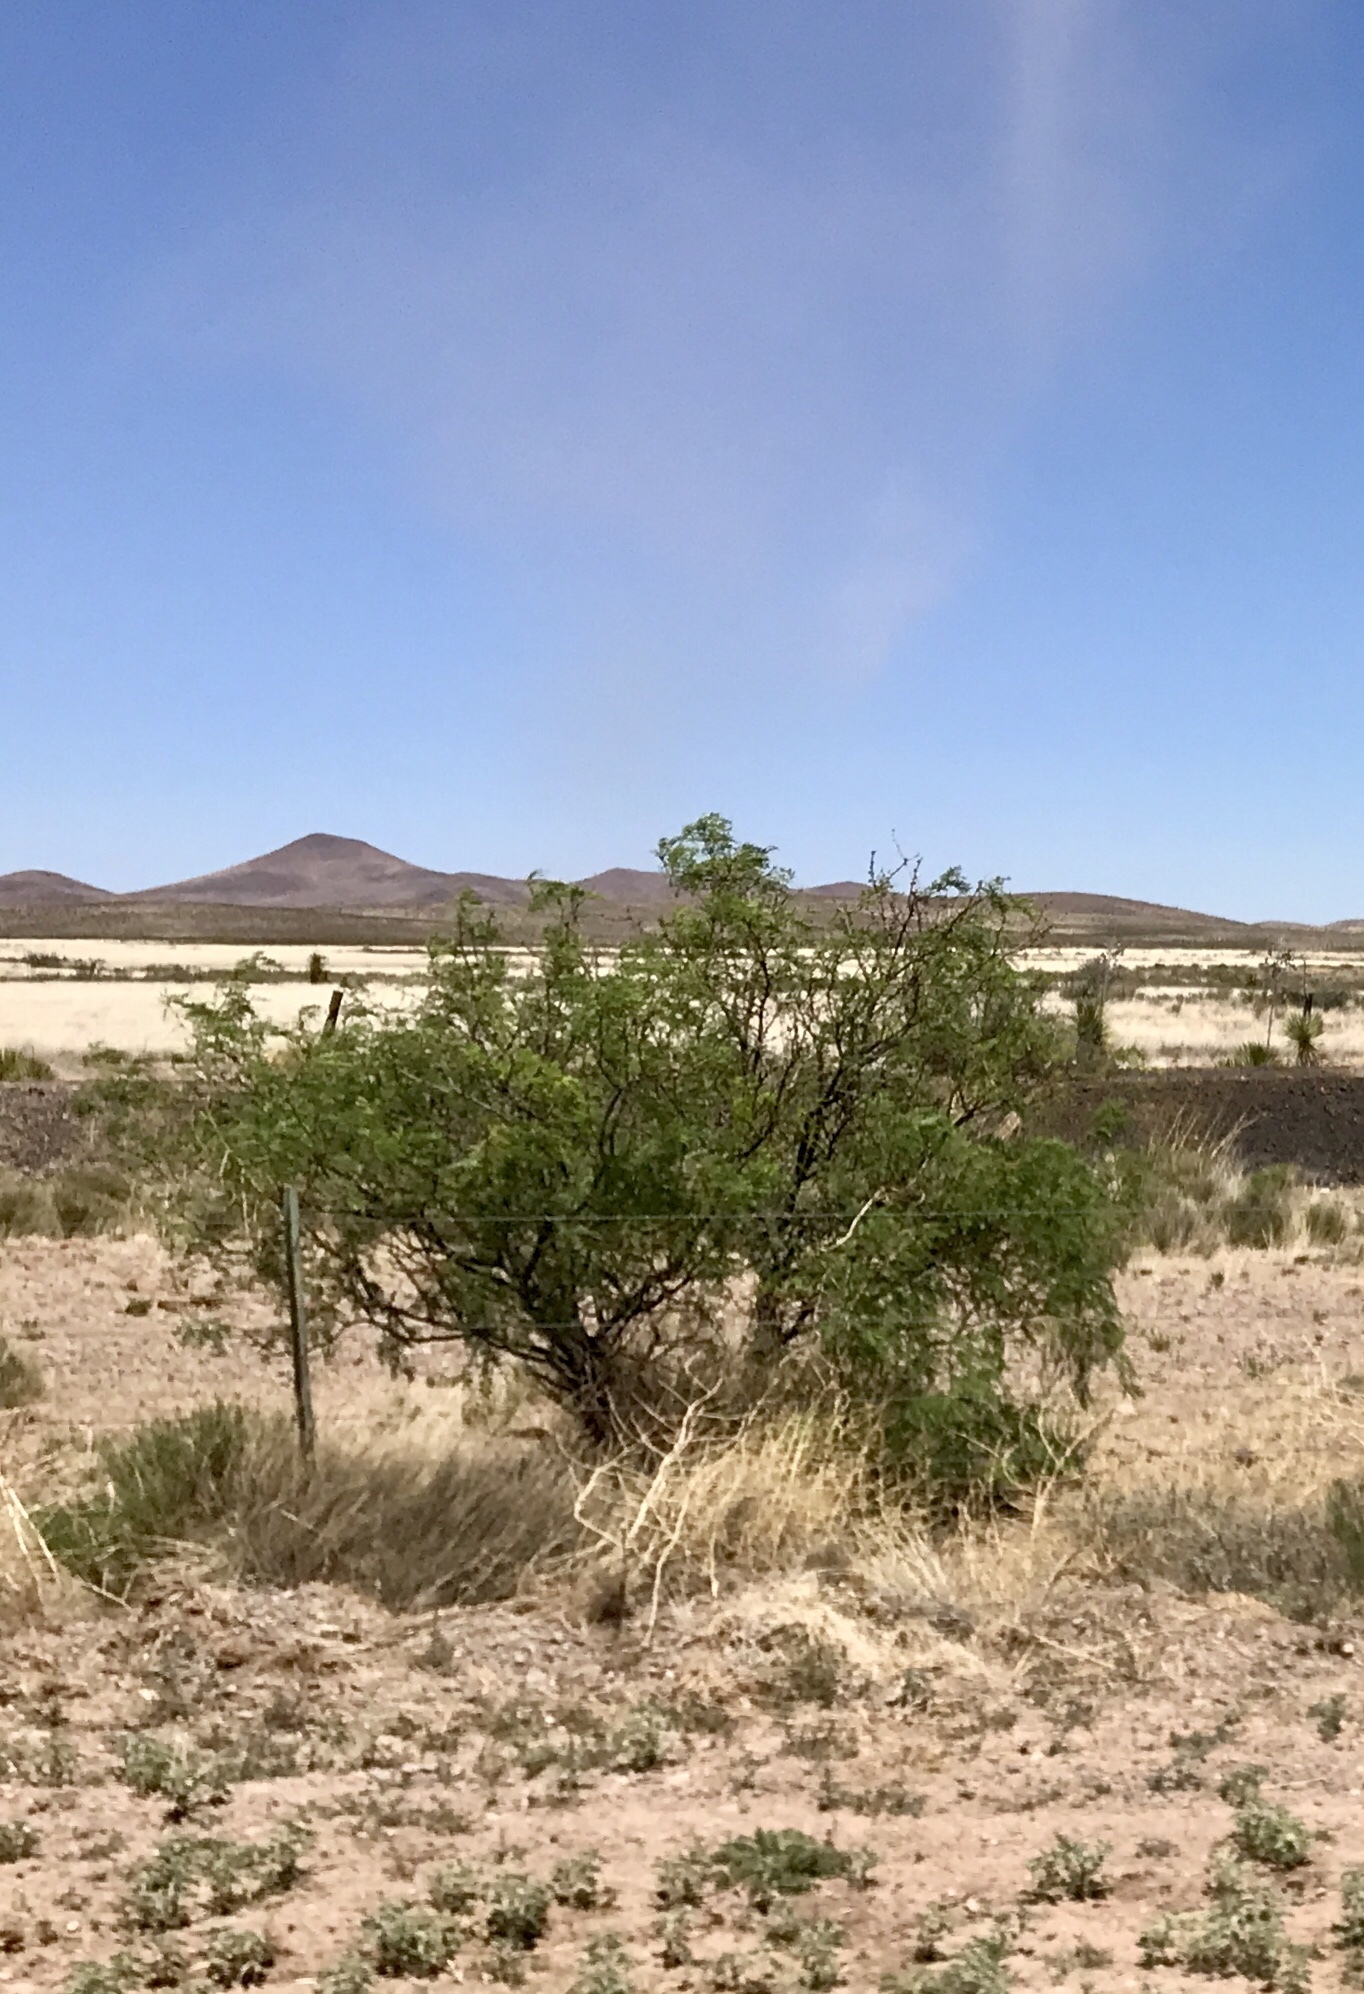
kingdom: Plantae
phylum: Tracheophyta
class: Magnoliopsida
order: Fabales
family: Fabaceae
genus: Prosopis
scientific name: Prosopis glandulosa
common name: Honey mesquite
